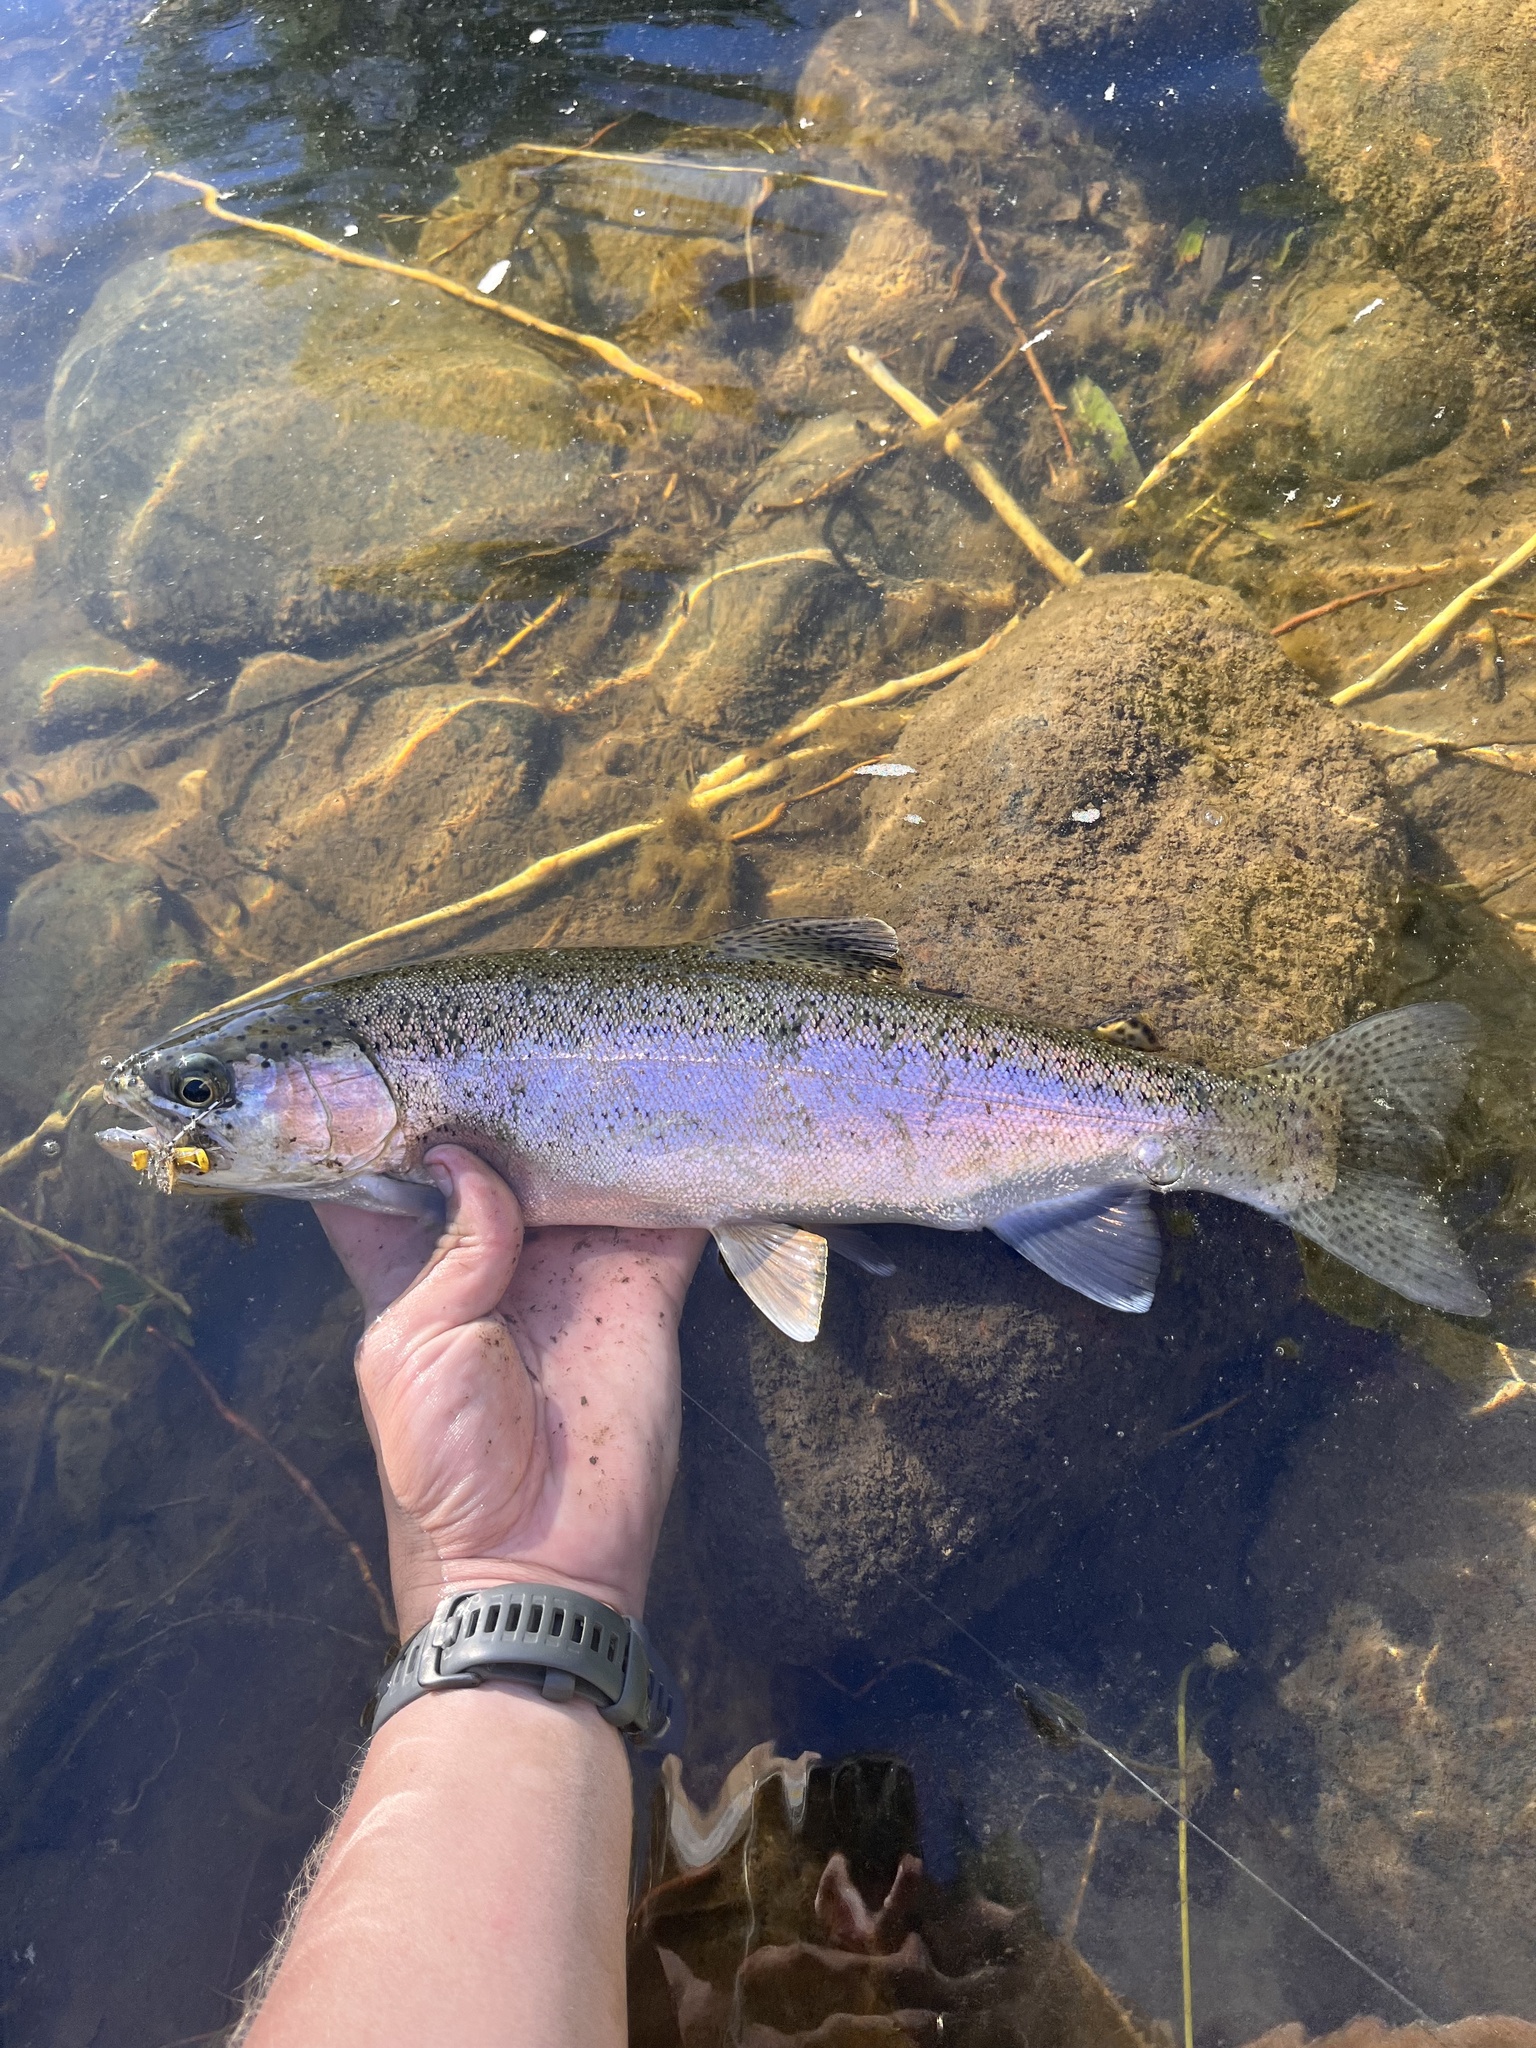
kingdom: Animalia
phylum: Chordata
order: Salmoniformes
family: Salmonidae
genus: Oncorhynchus
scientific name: Oncorhynchus mykiss
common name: Rainbow trout
